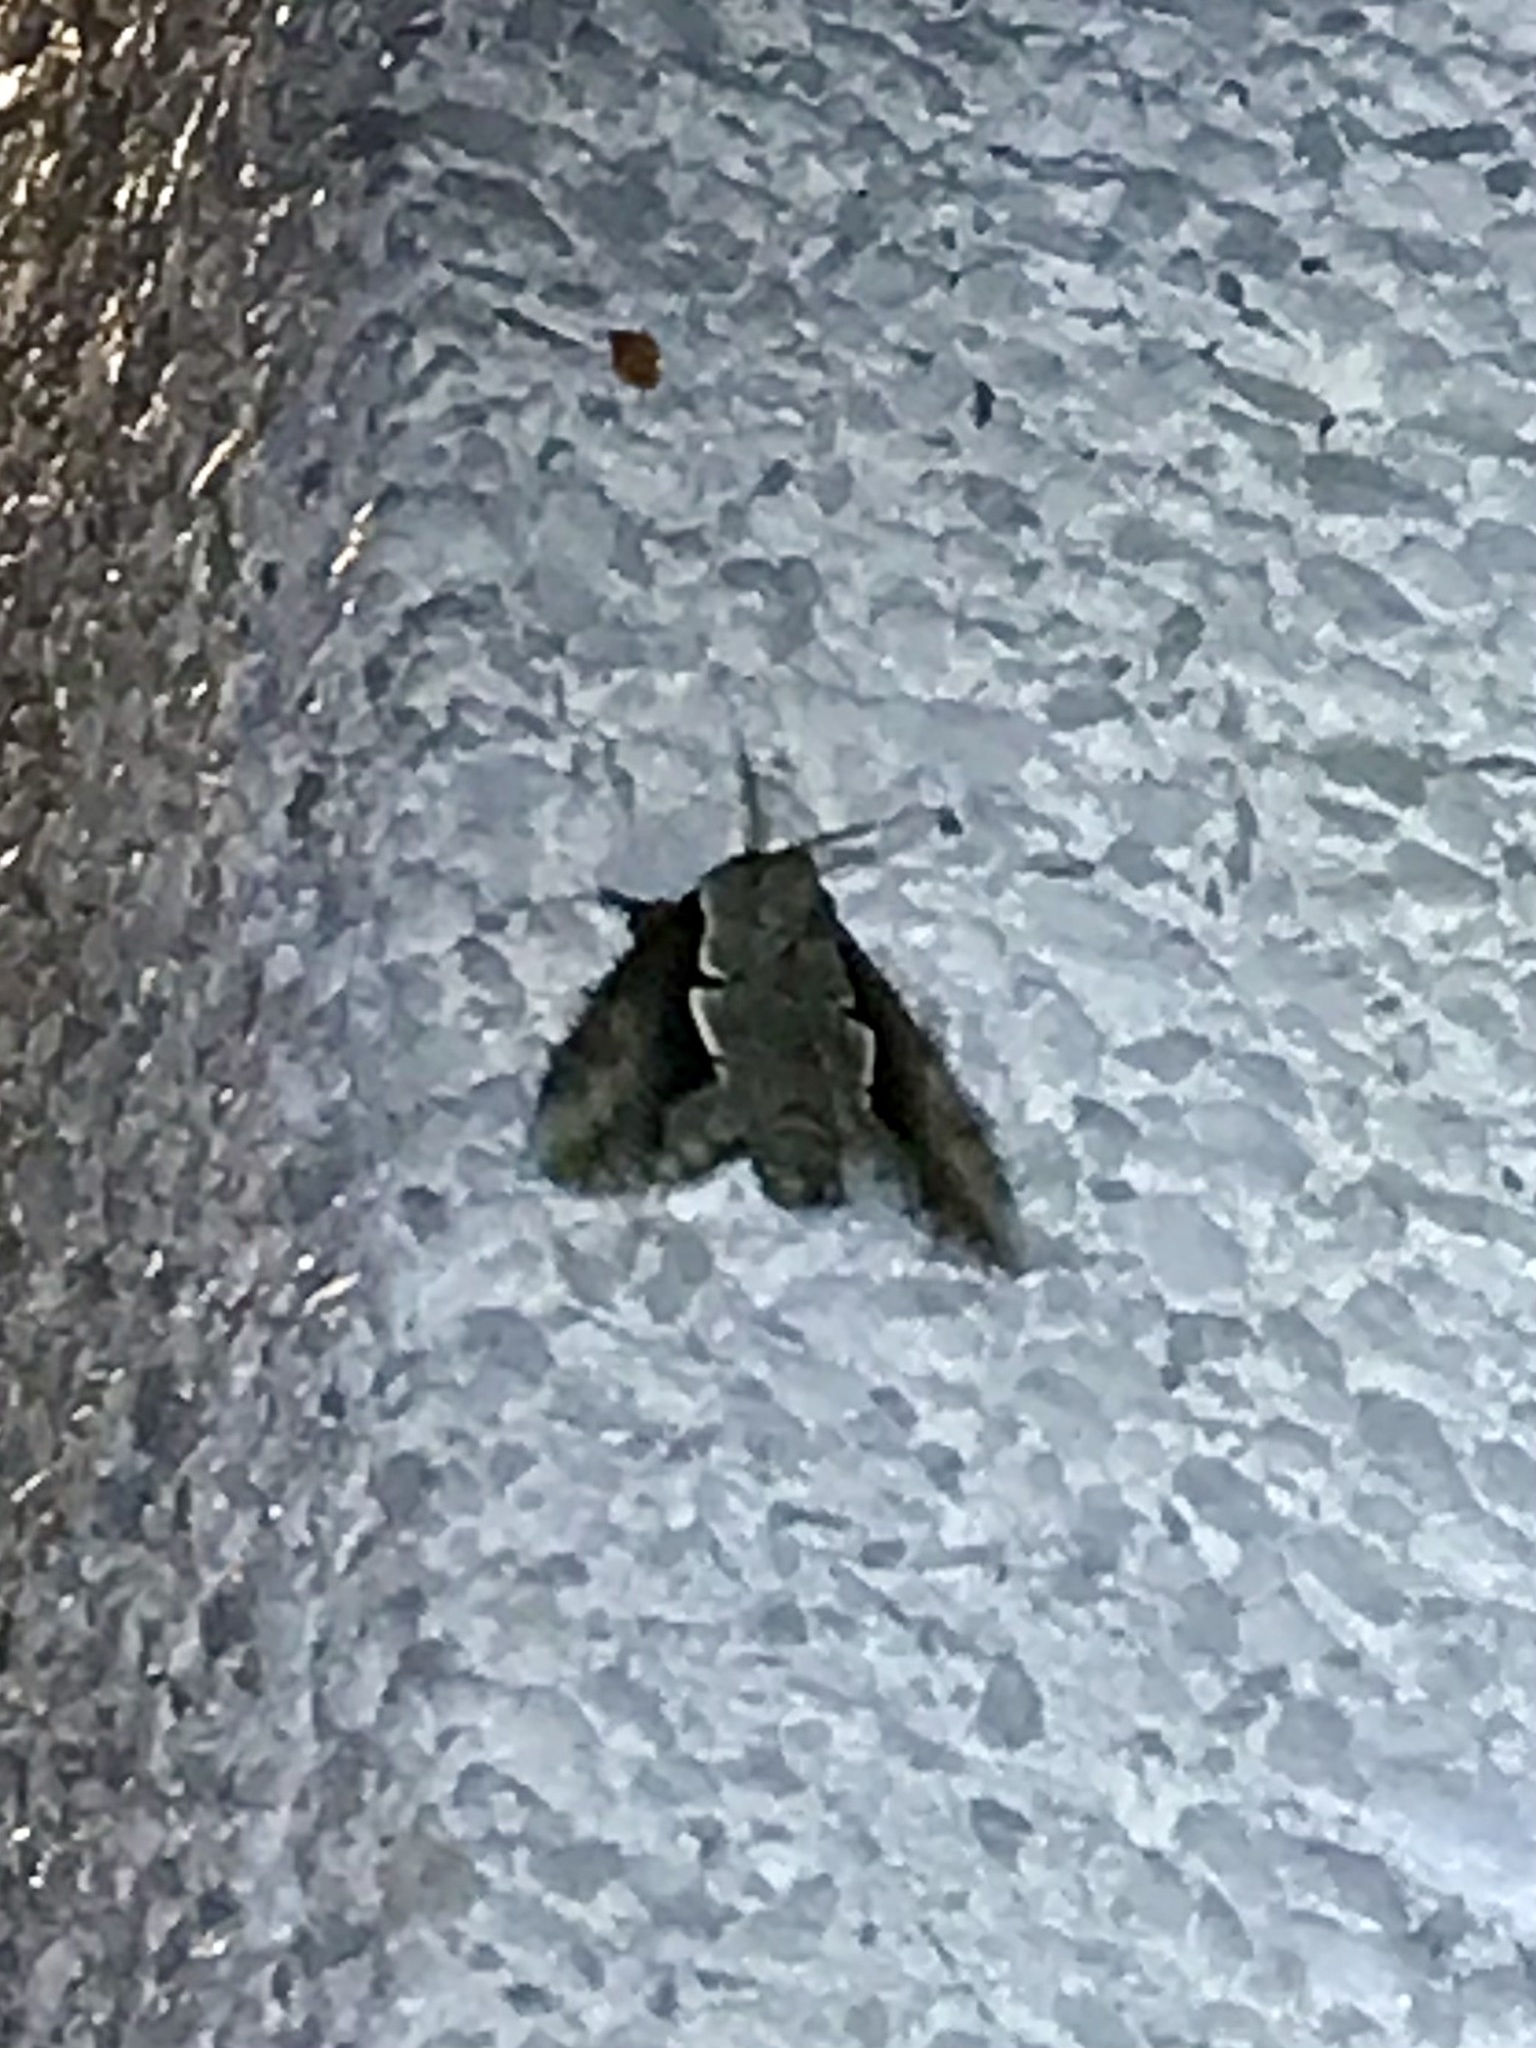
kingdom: Animalia
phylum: Arthropoda
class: Insecta
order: Lepidoptera
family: Notodontidae
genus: Nerice
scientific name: Nerice bidentata
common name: Double-toothed prominent
